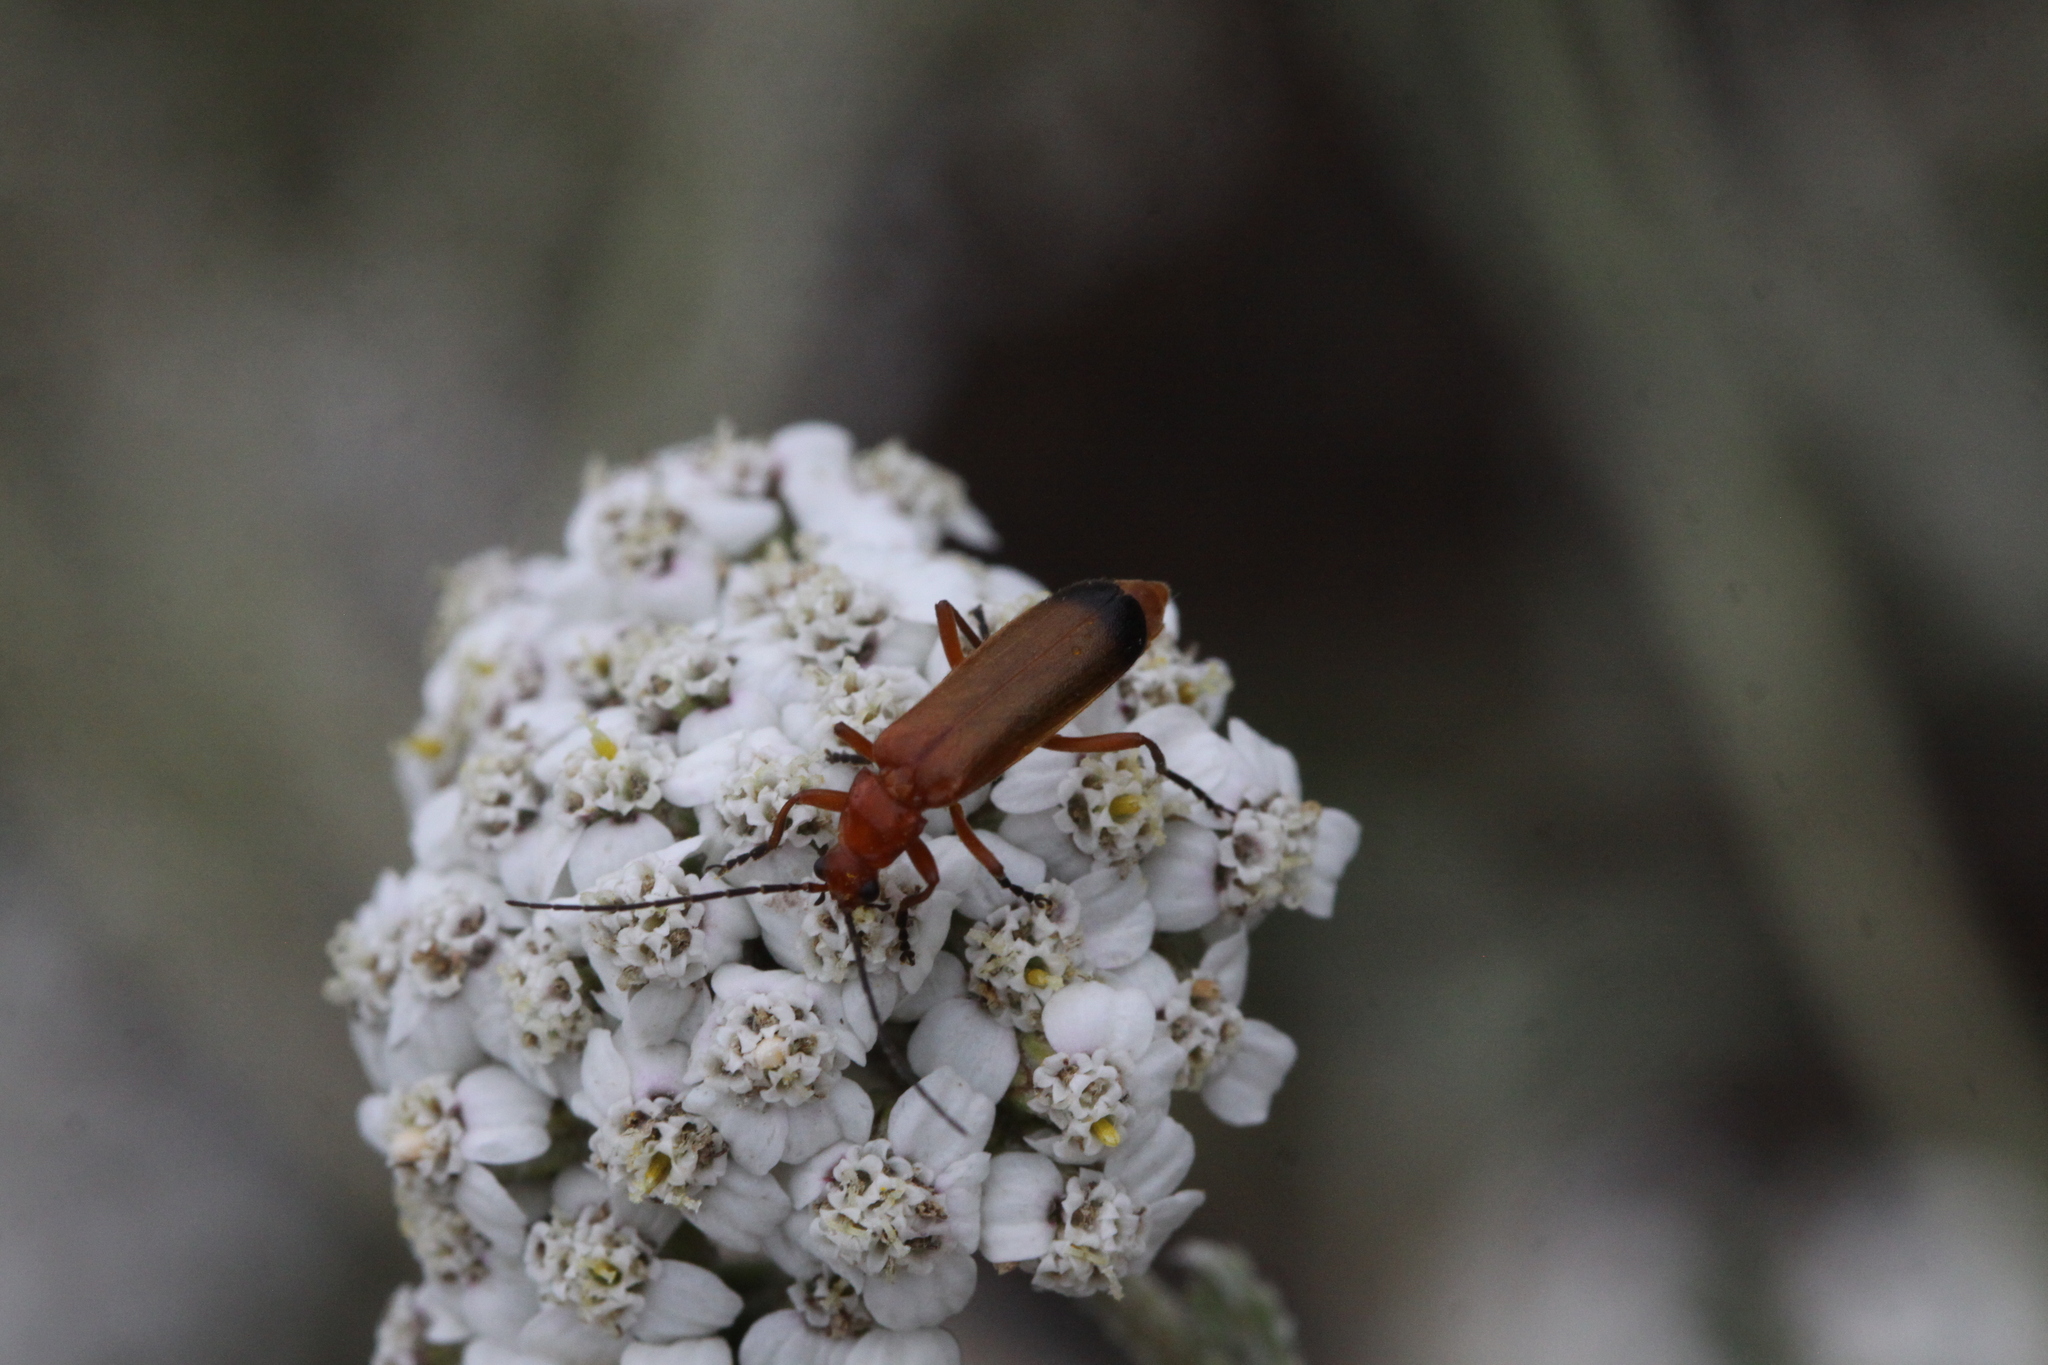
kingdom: Animalia
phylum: Arthropoda
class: Insecta
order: Coleoptera
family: Cantharidae
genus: Rhagonycha
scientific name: Rhagonycha fulva
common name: Common red soldier beetle
